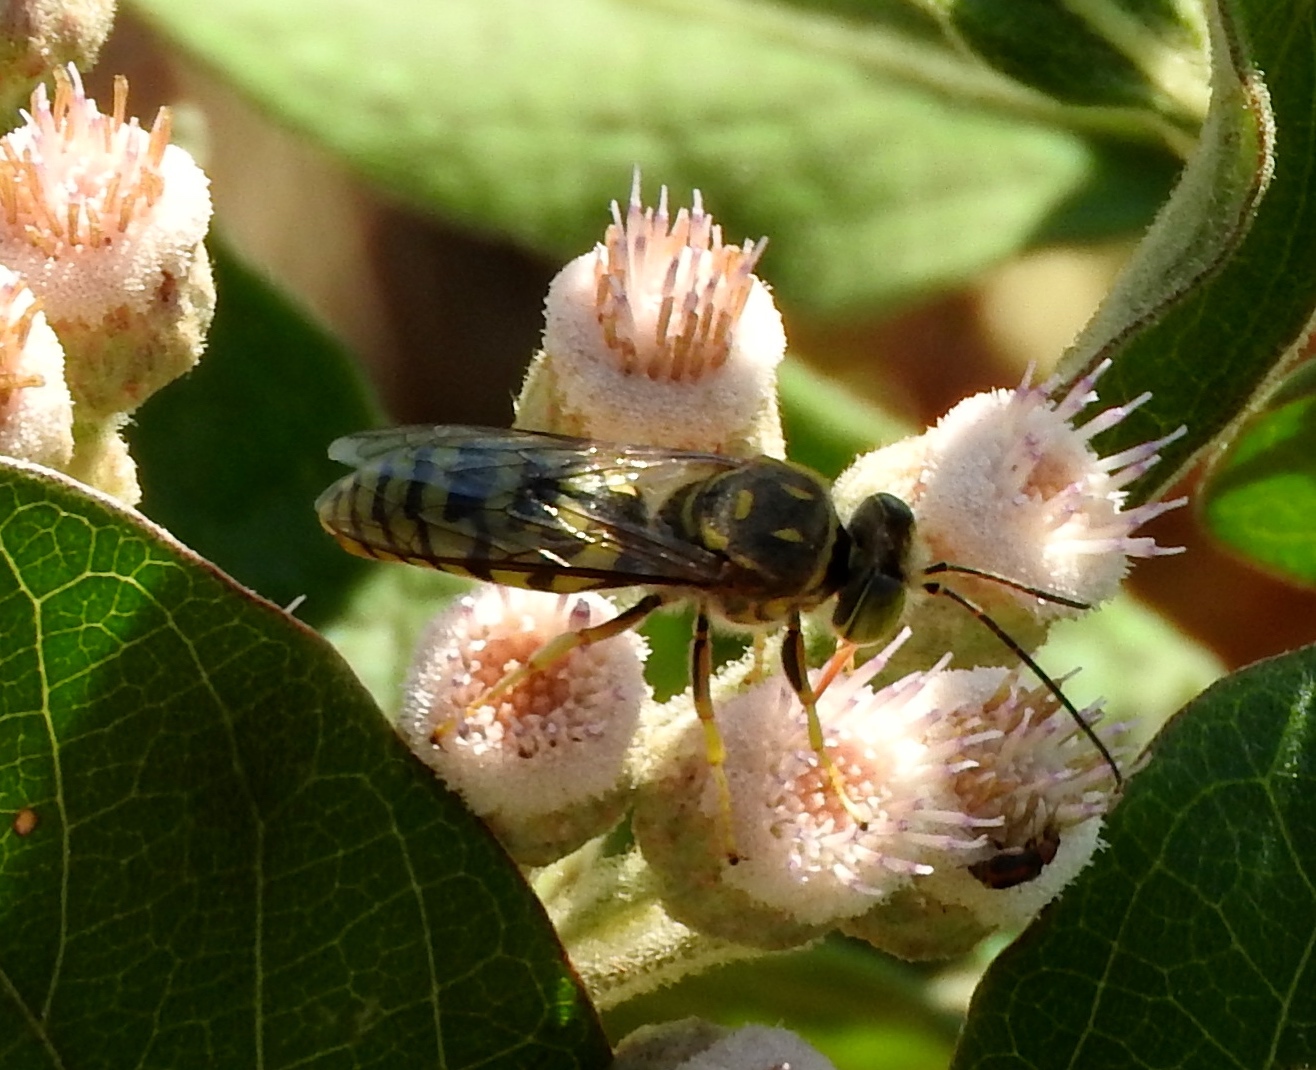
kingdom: Animalia
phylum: Arthropoda
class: Insecta
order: Hymenoptera
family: Crabronidae
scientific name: Crabronidae
